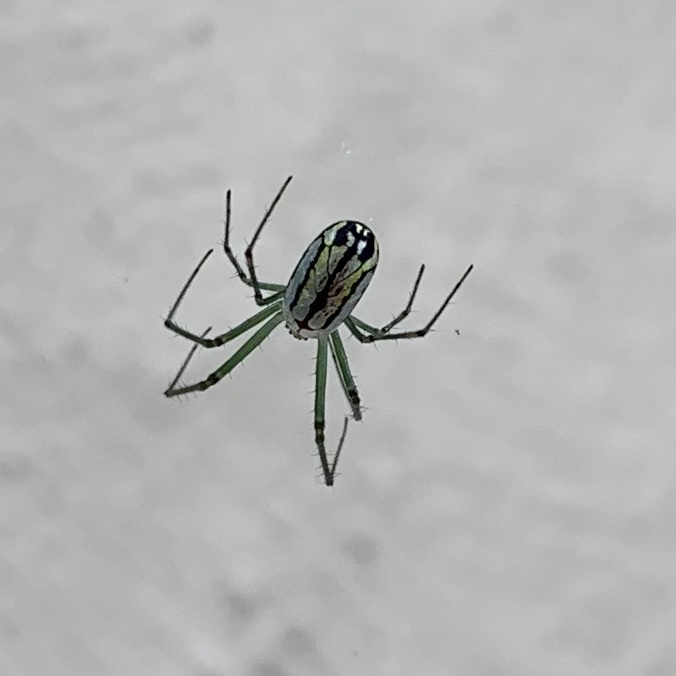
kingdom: Animalia
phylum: Arthropoda
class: Arachnida
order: Araneae
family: Tetragnathidae
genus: Leucauge
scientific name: Leucauge venusta
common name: Longjawed orb weavers
